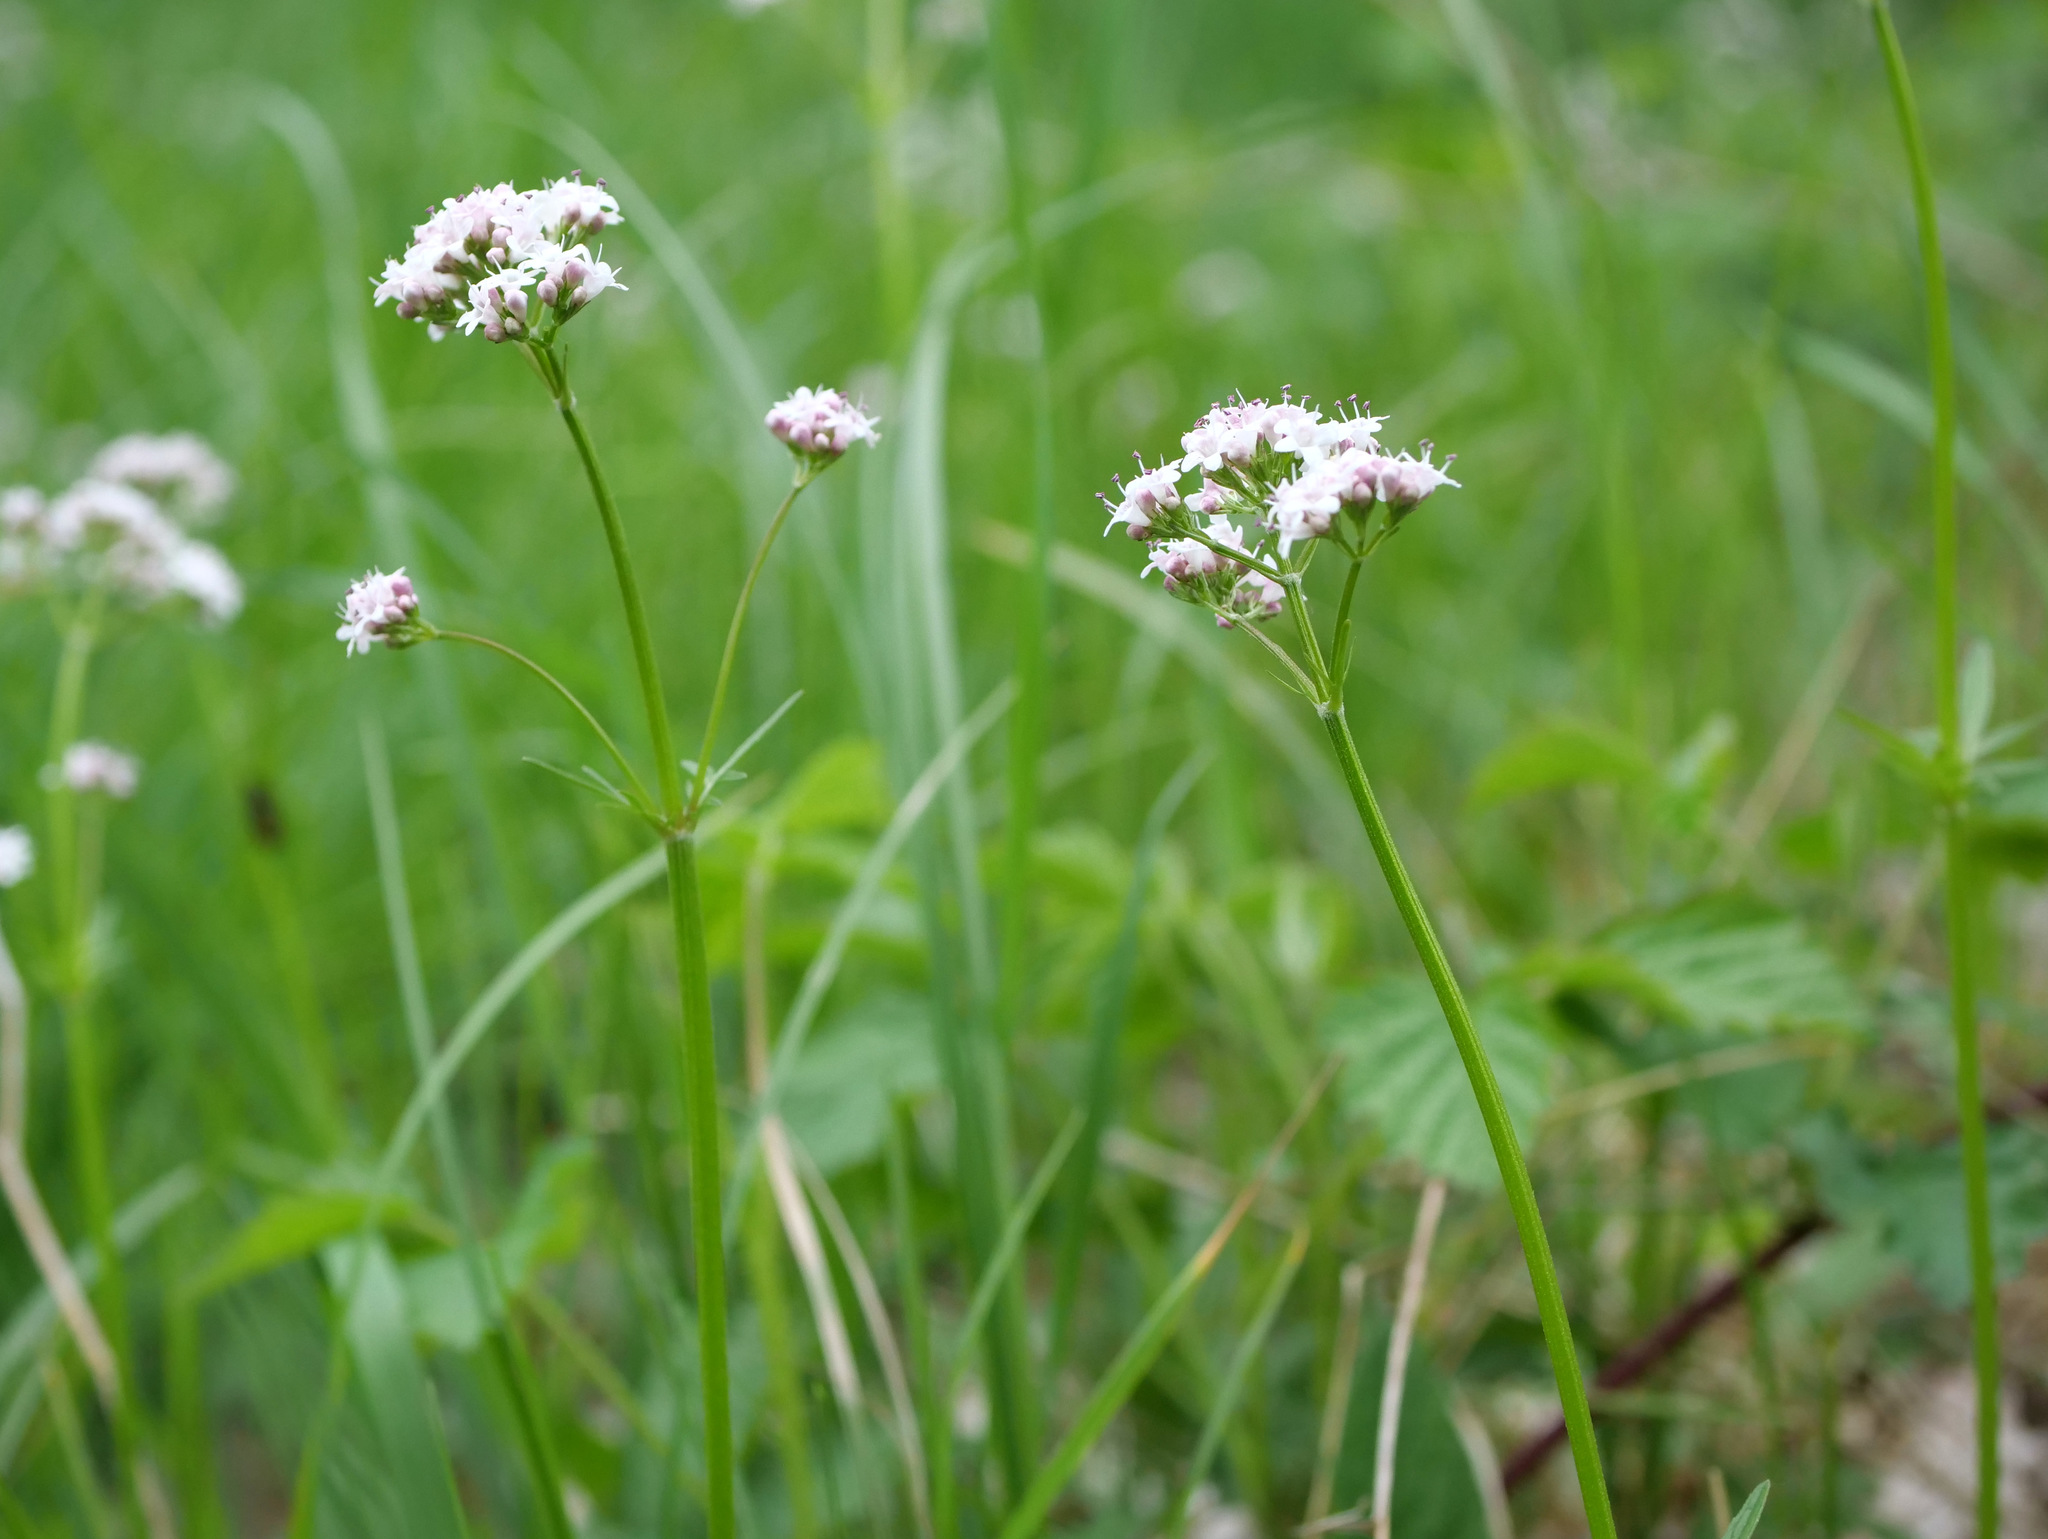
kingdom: Plantae
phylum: Tracheophyta
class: Magnoliopsida
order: Dipsacales
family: Caprifoliaceae
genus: Valeriana
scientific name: Valeriana dioica
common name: Marsh valerian
